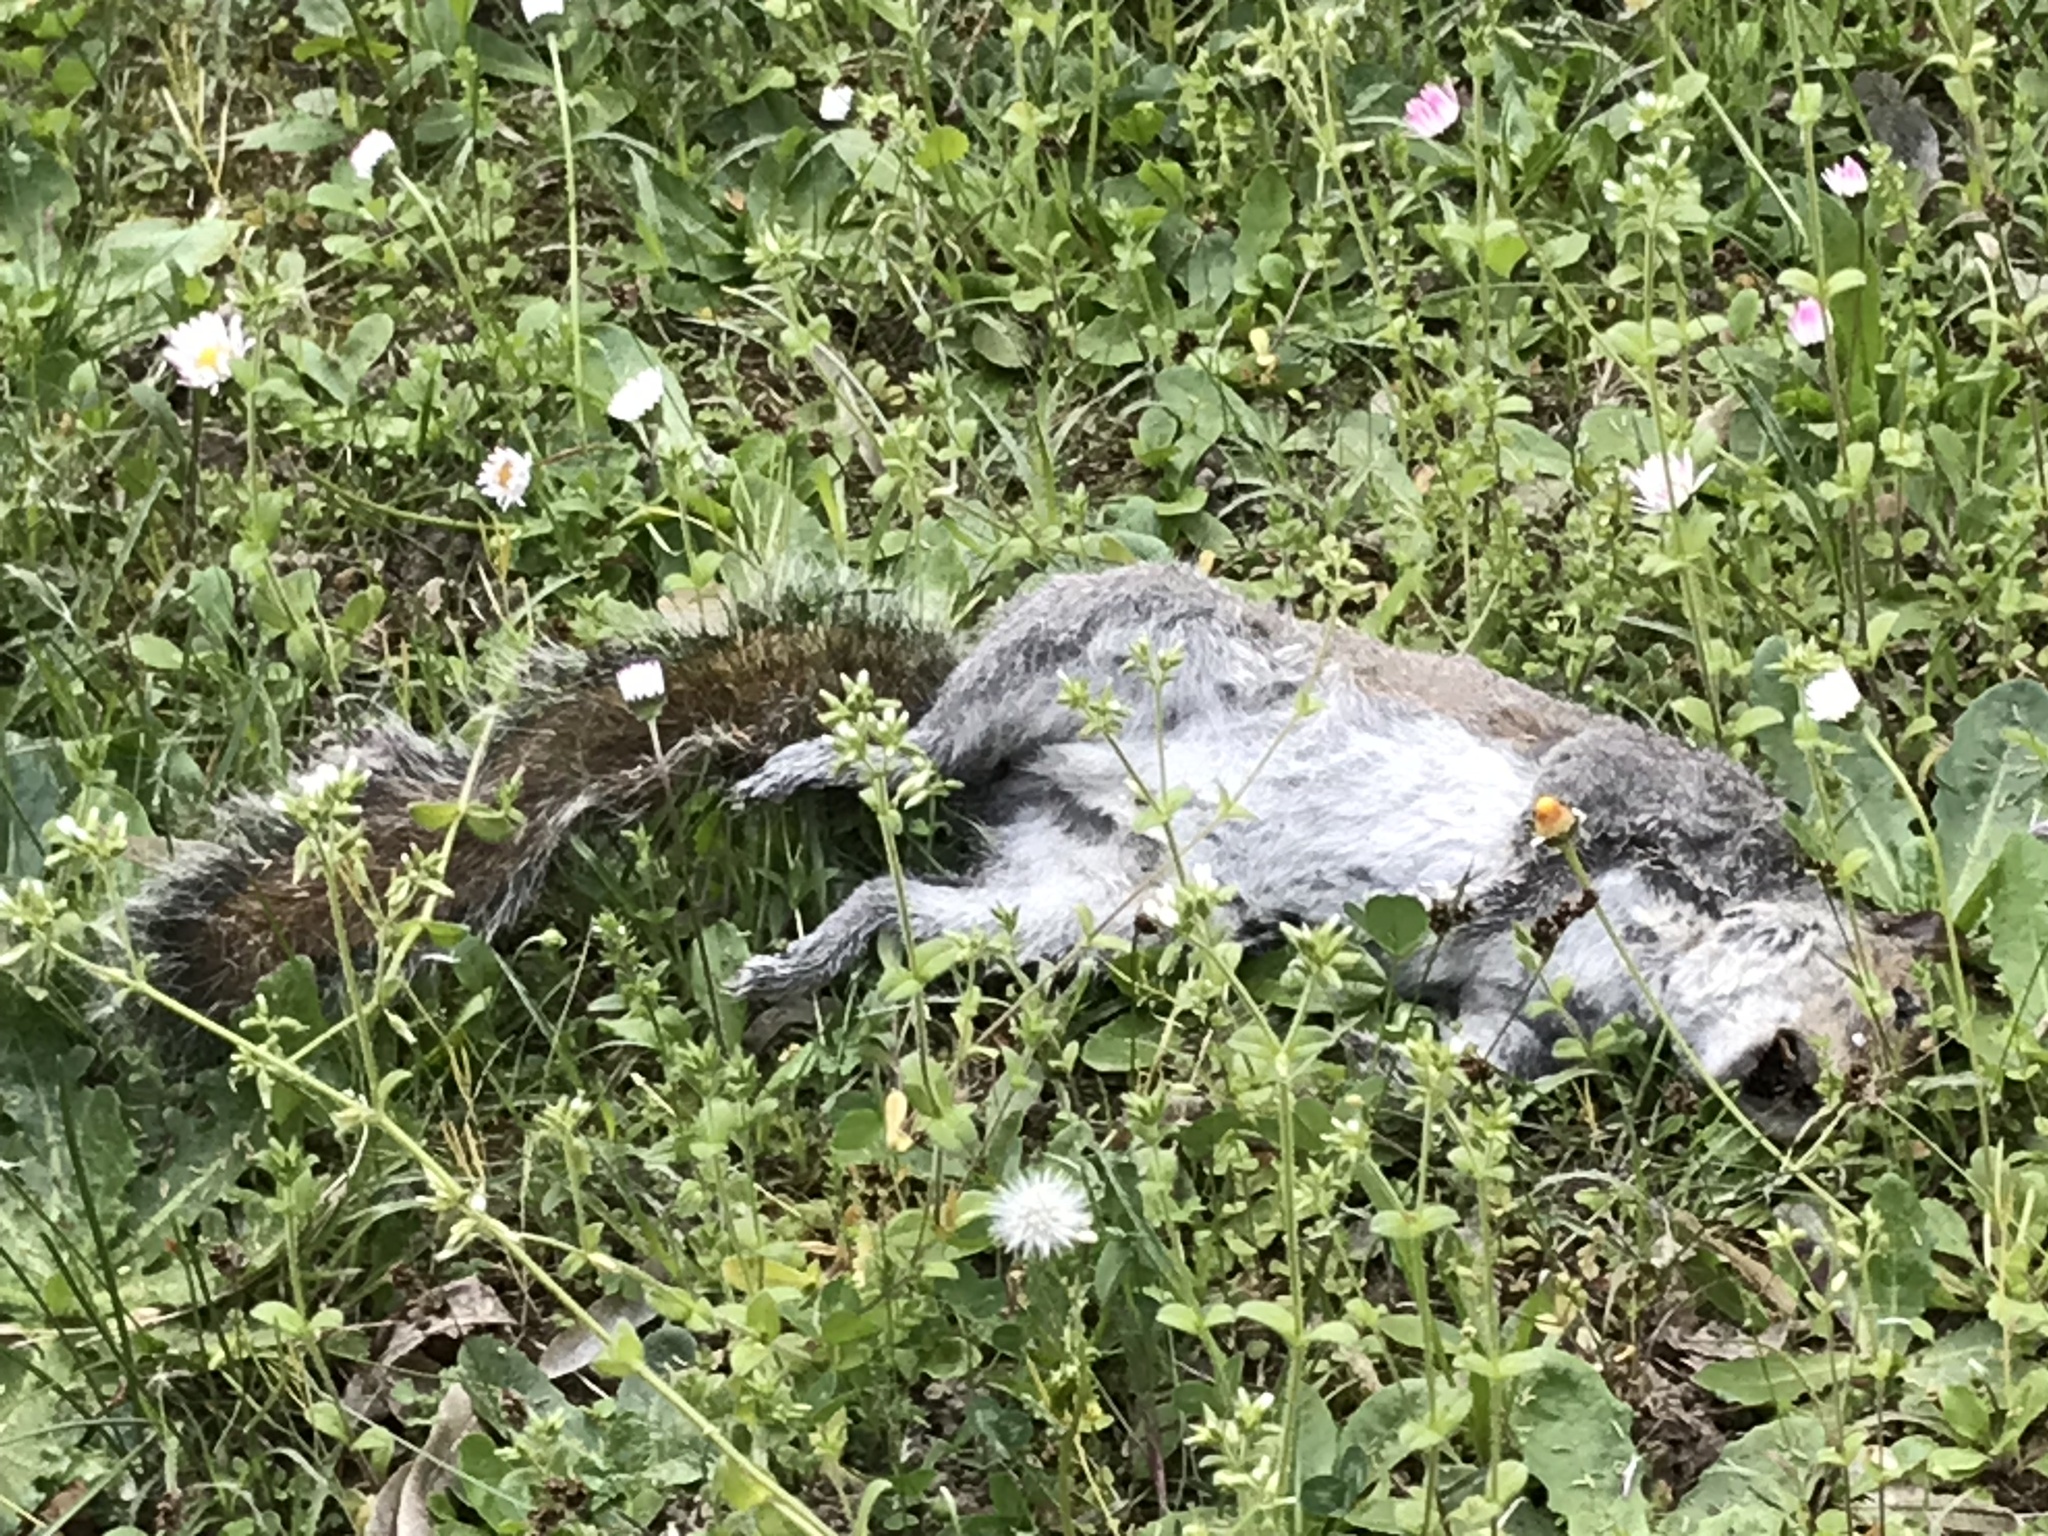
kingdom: Animalia
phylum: Chordata
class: Mammalia
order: Rodentia
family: Sciuridae
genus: Sciurus
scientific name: Sciurus carolinensis
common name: Eastern gray squirrel
